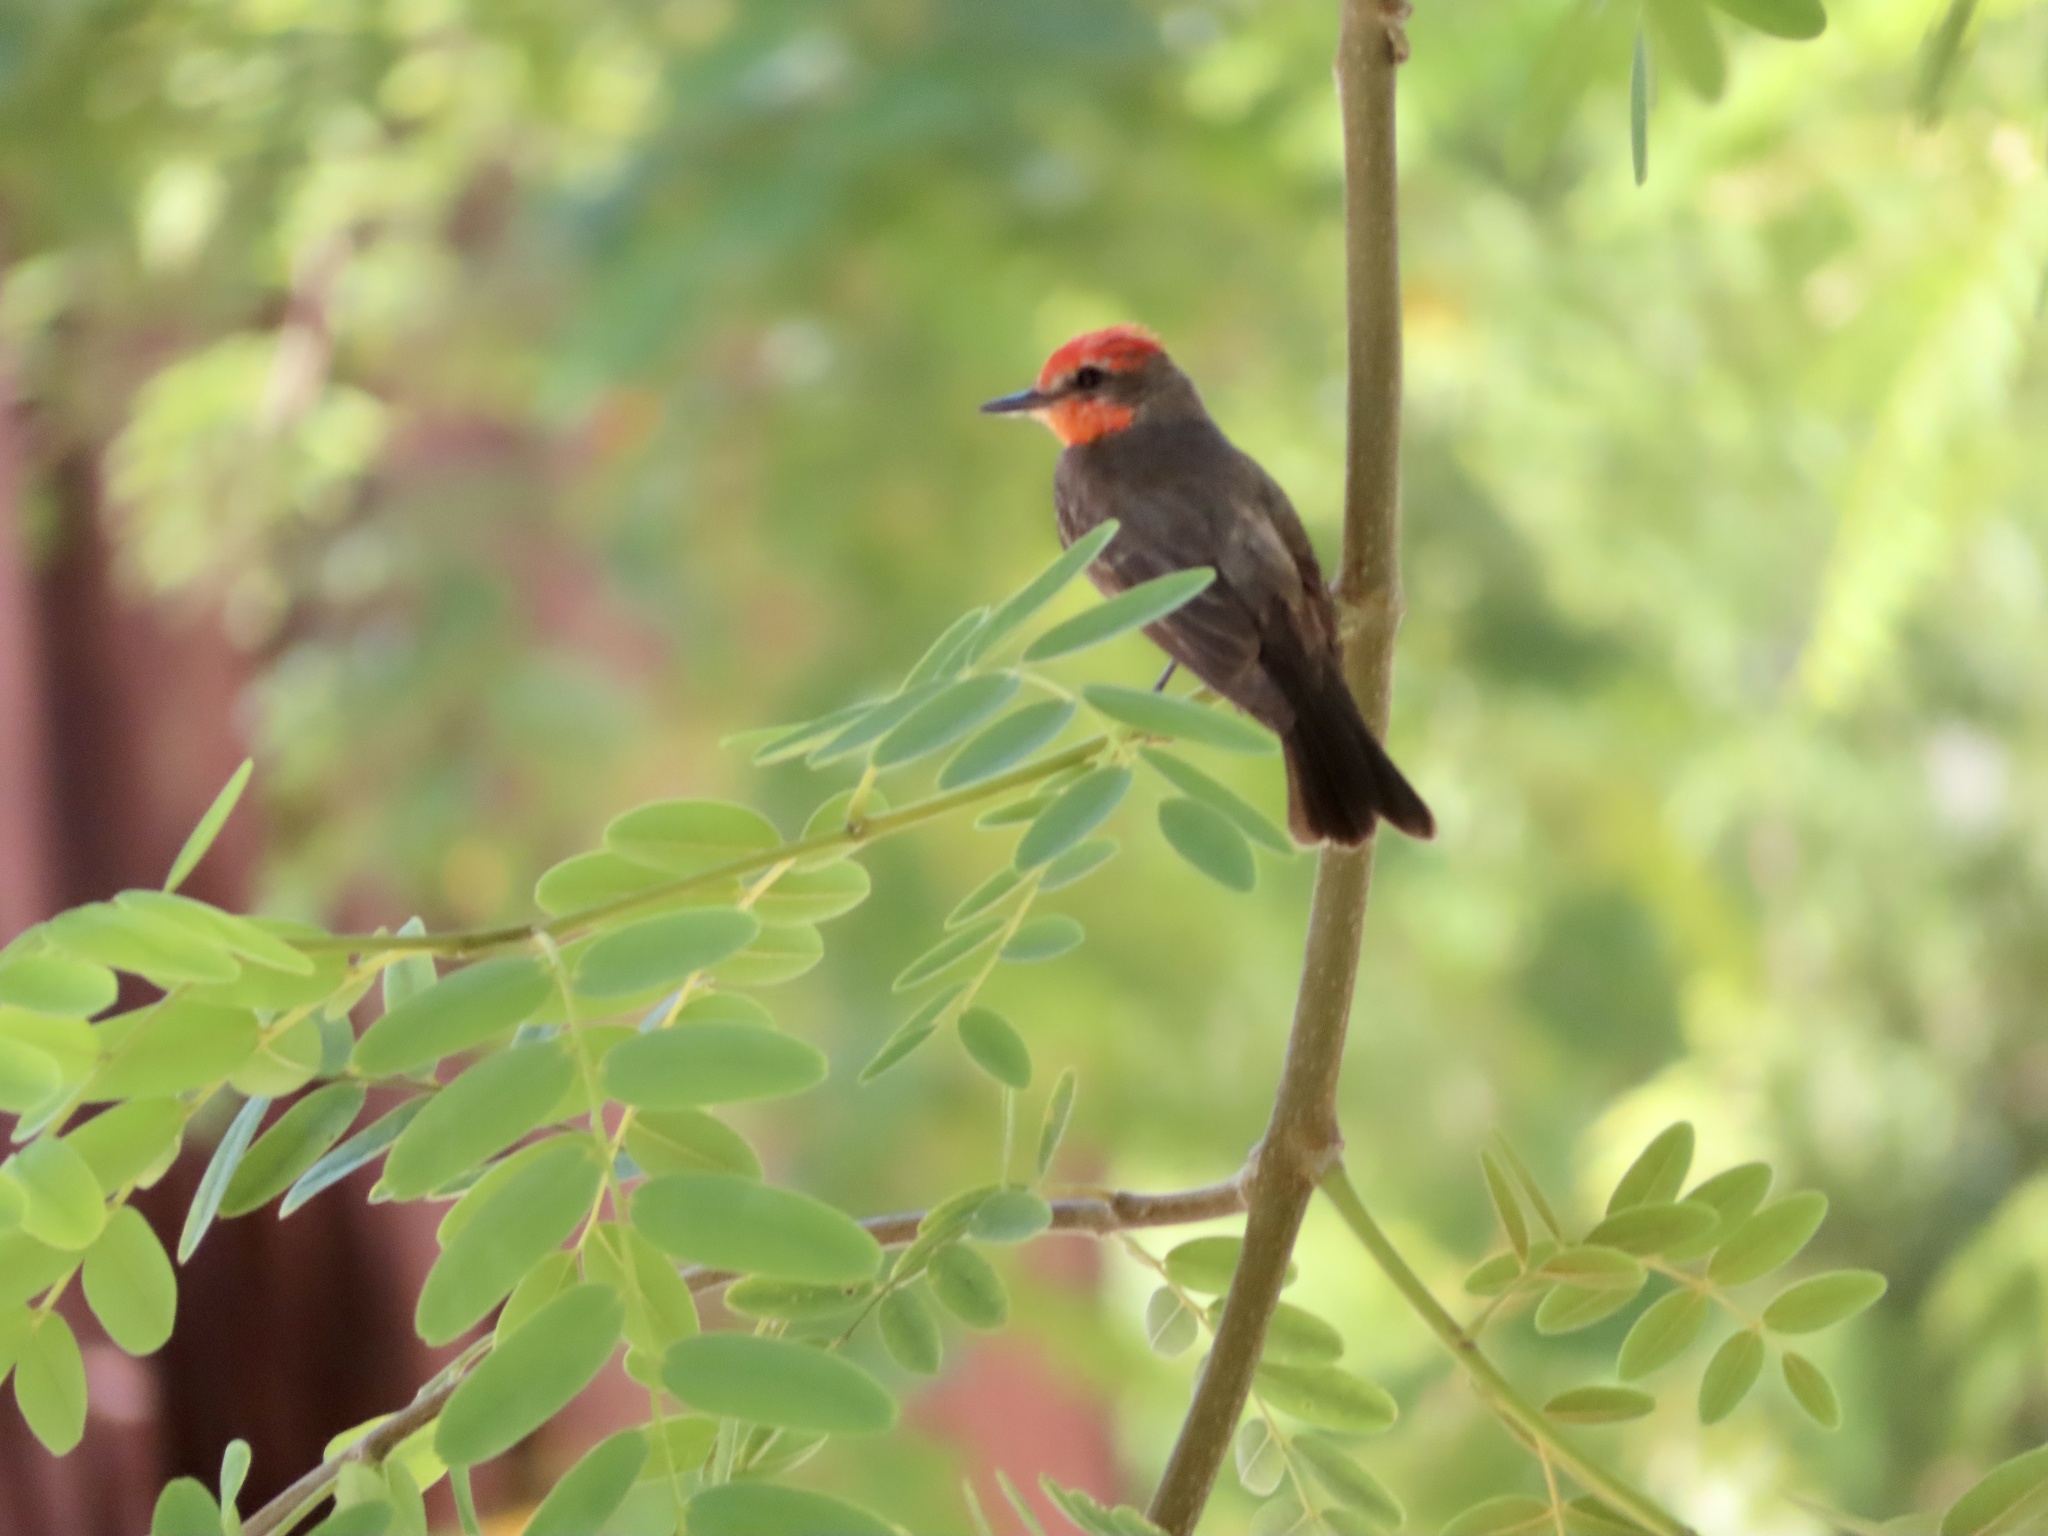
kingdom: Animalia
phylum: Chordata
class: Aves
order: Passeriformes
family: Tyrannidae
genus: Pyrocephalus
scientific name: Pyrocephalus rubinus
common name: Vermilion flycatcher
